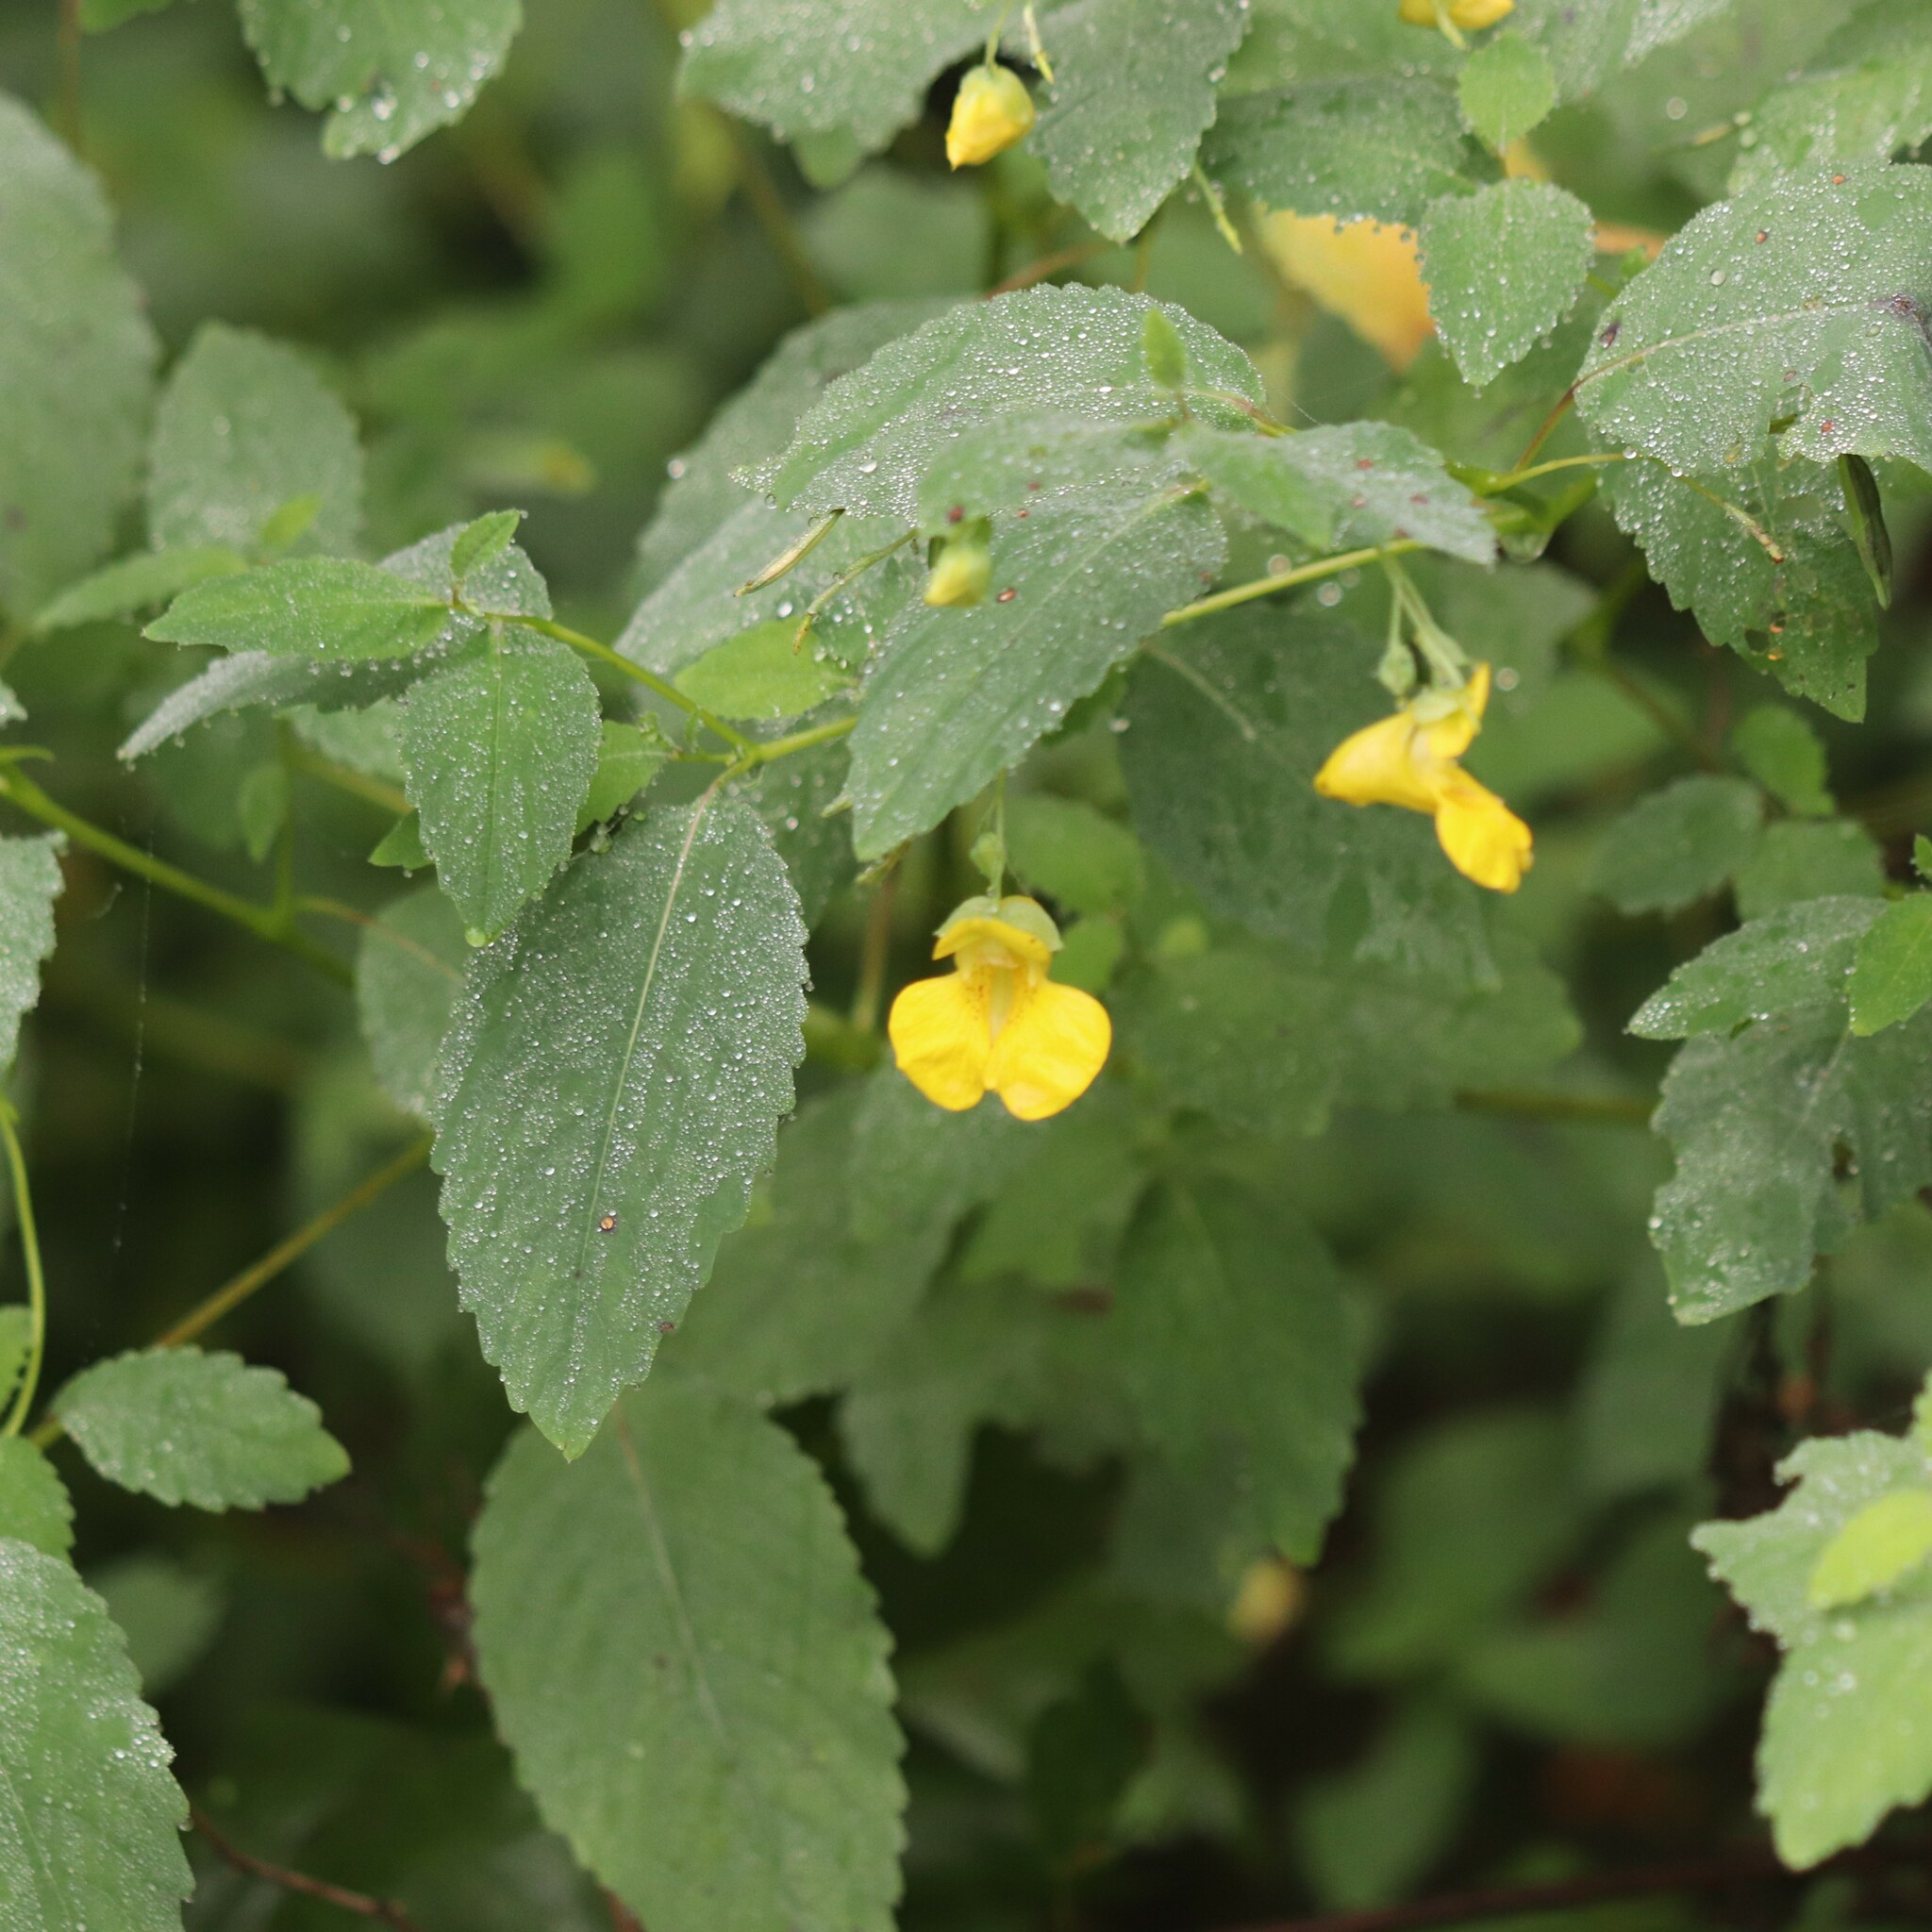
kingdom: Plantae
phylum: Tracheophyta
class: Magnoliopsida
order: Ericales
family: Balsaminaceae
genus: Impatiens
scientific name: Impatiens pallida
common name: Pale snapweed
